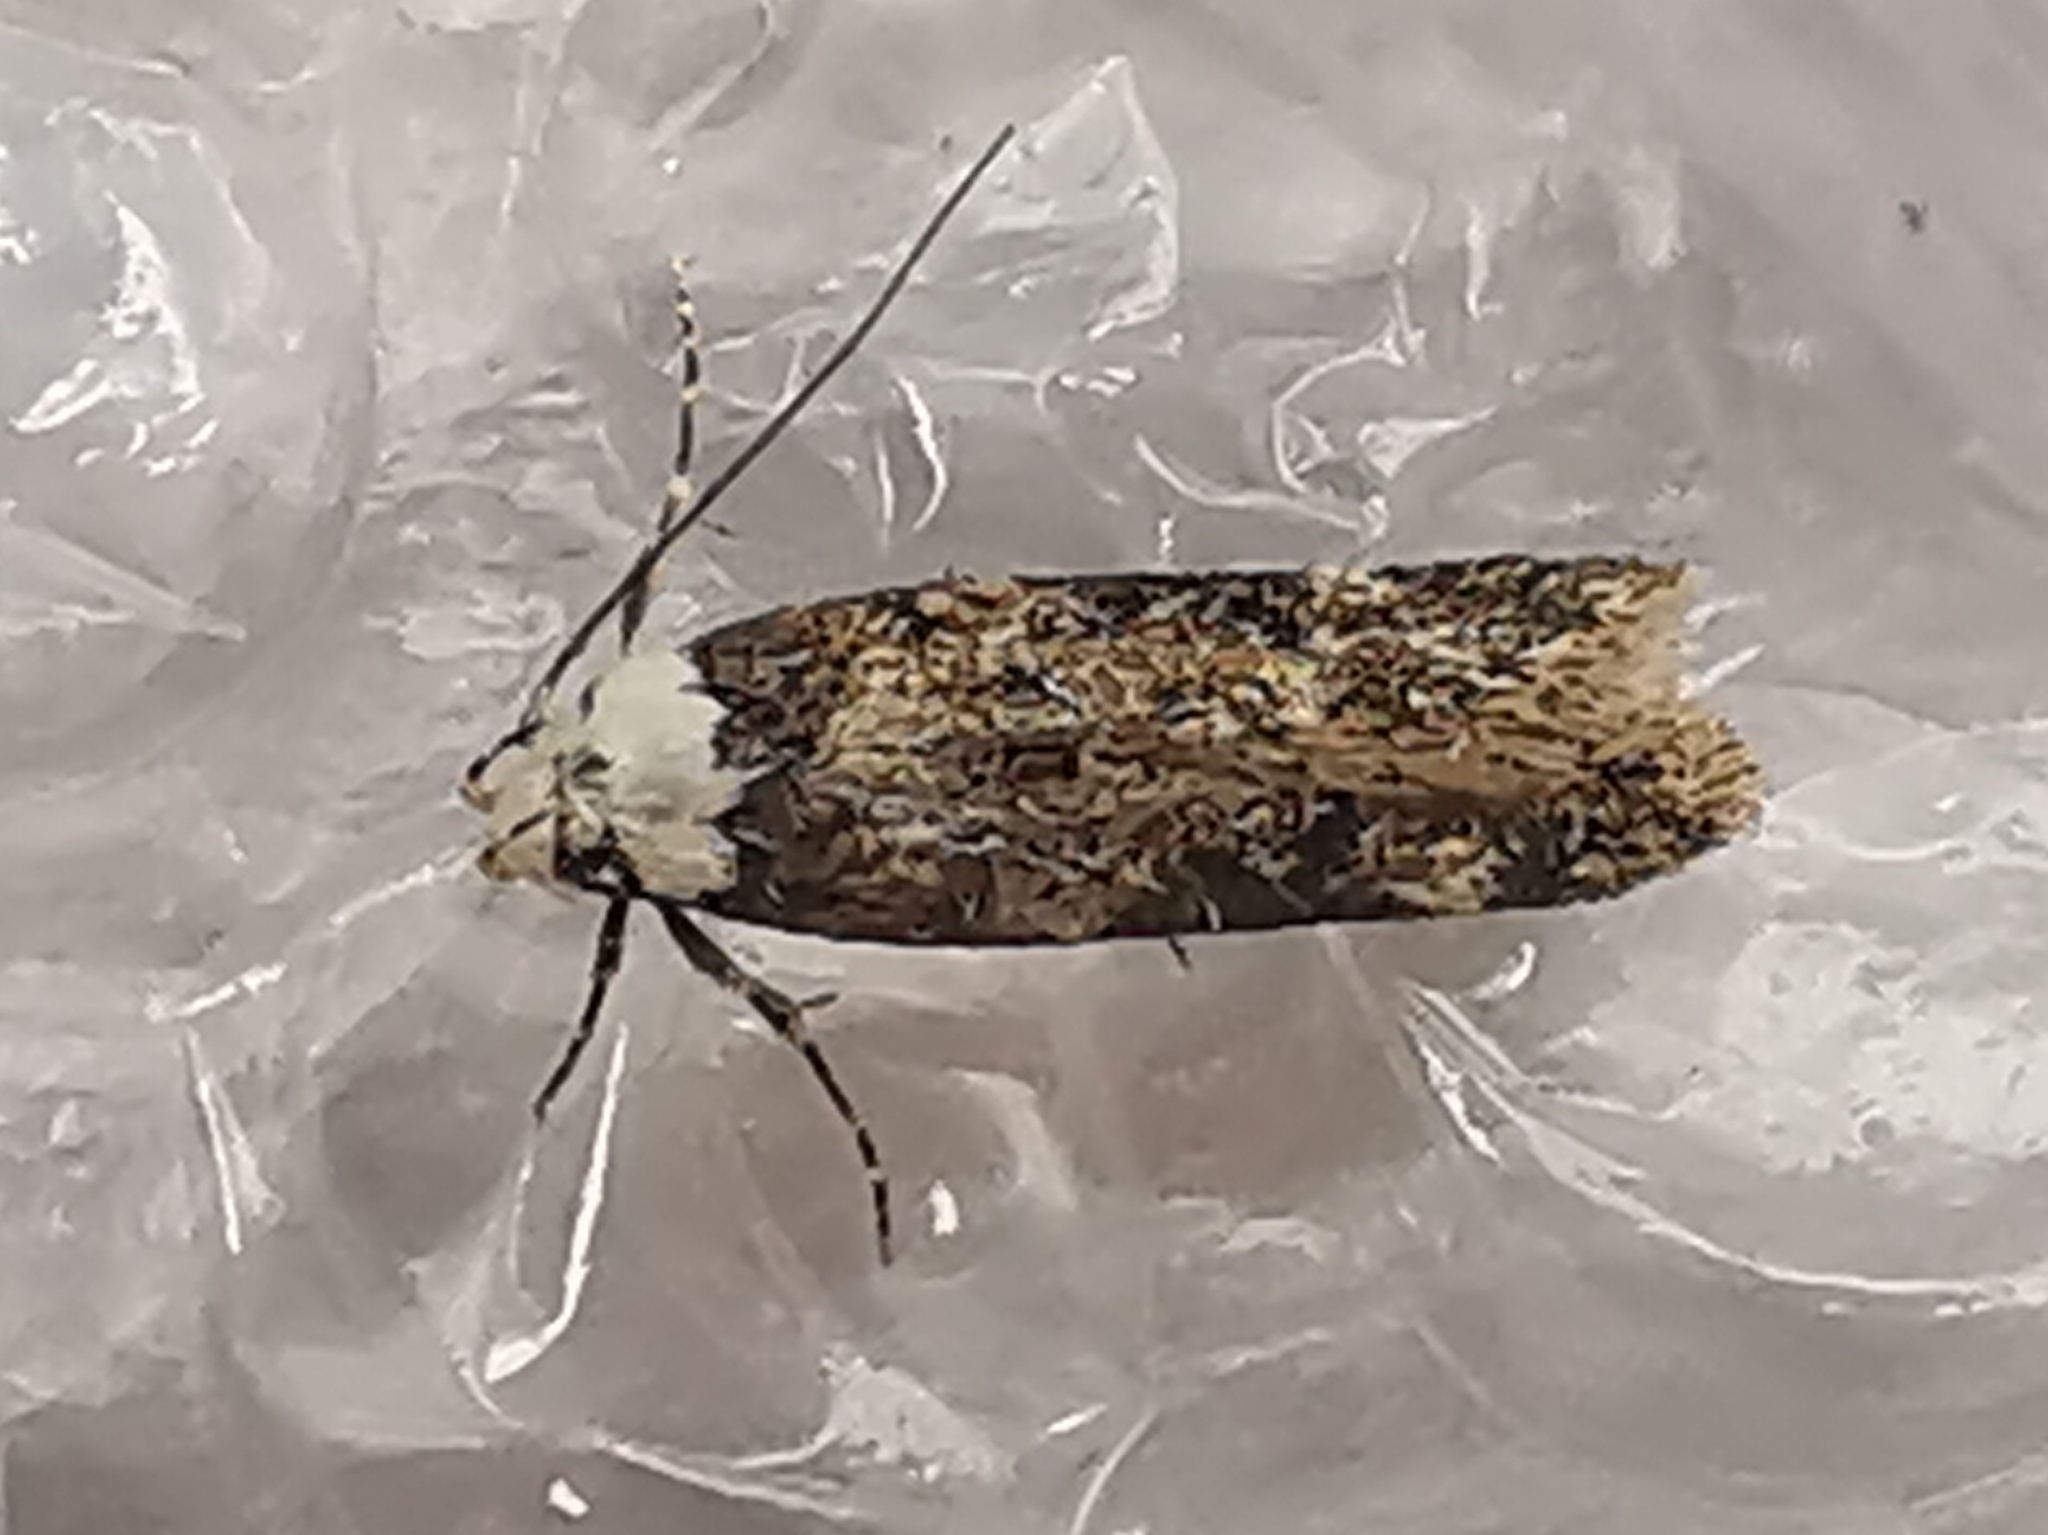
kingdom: Animalia
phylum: Arthropoda
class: Insecta
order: Lepidoptera
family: Oecophoridae
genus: Endrosis
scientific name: Endrosis sarcitrella
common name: White-shouldered house moth
